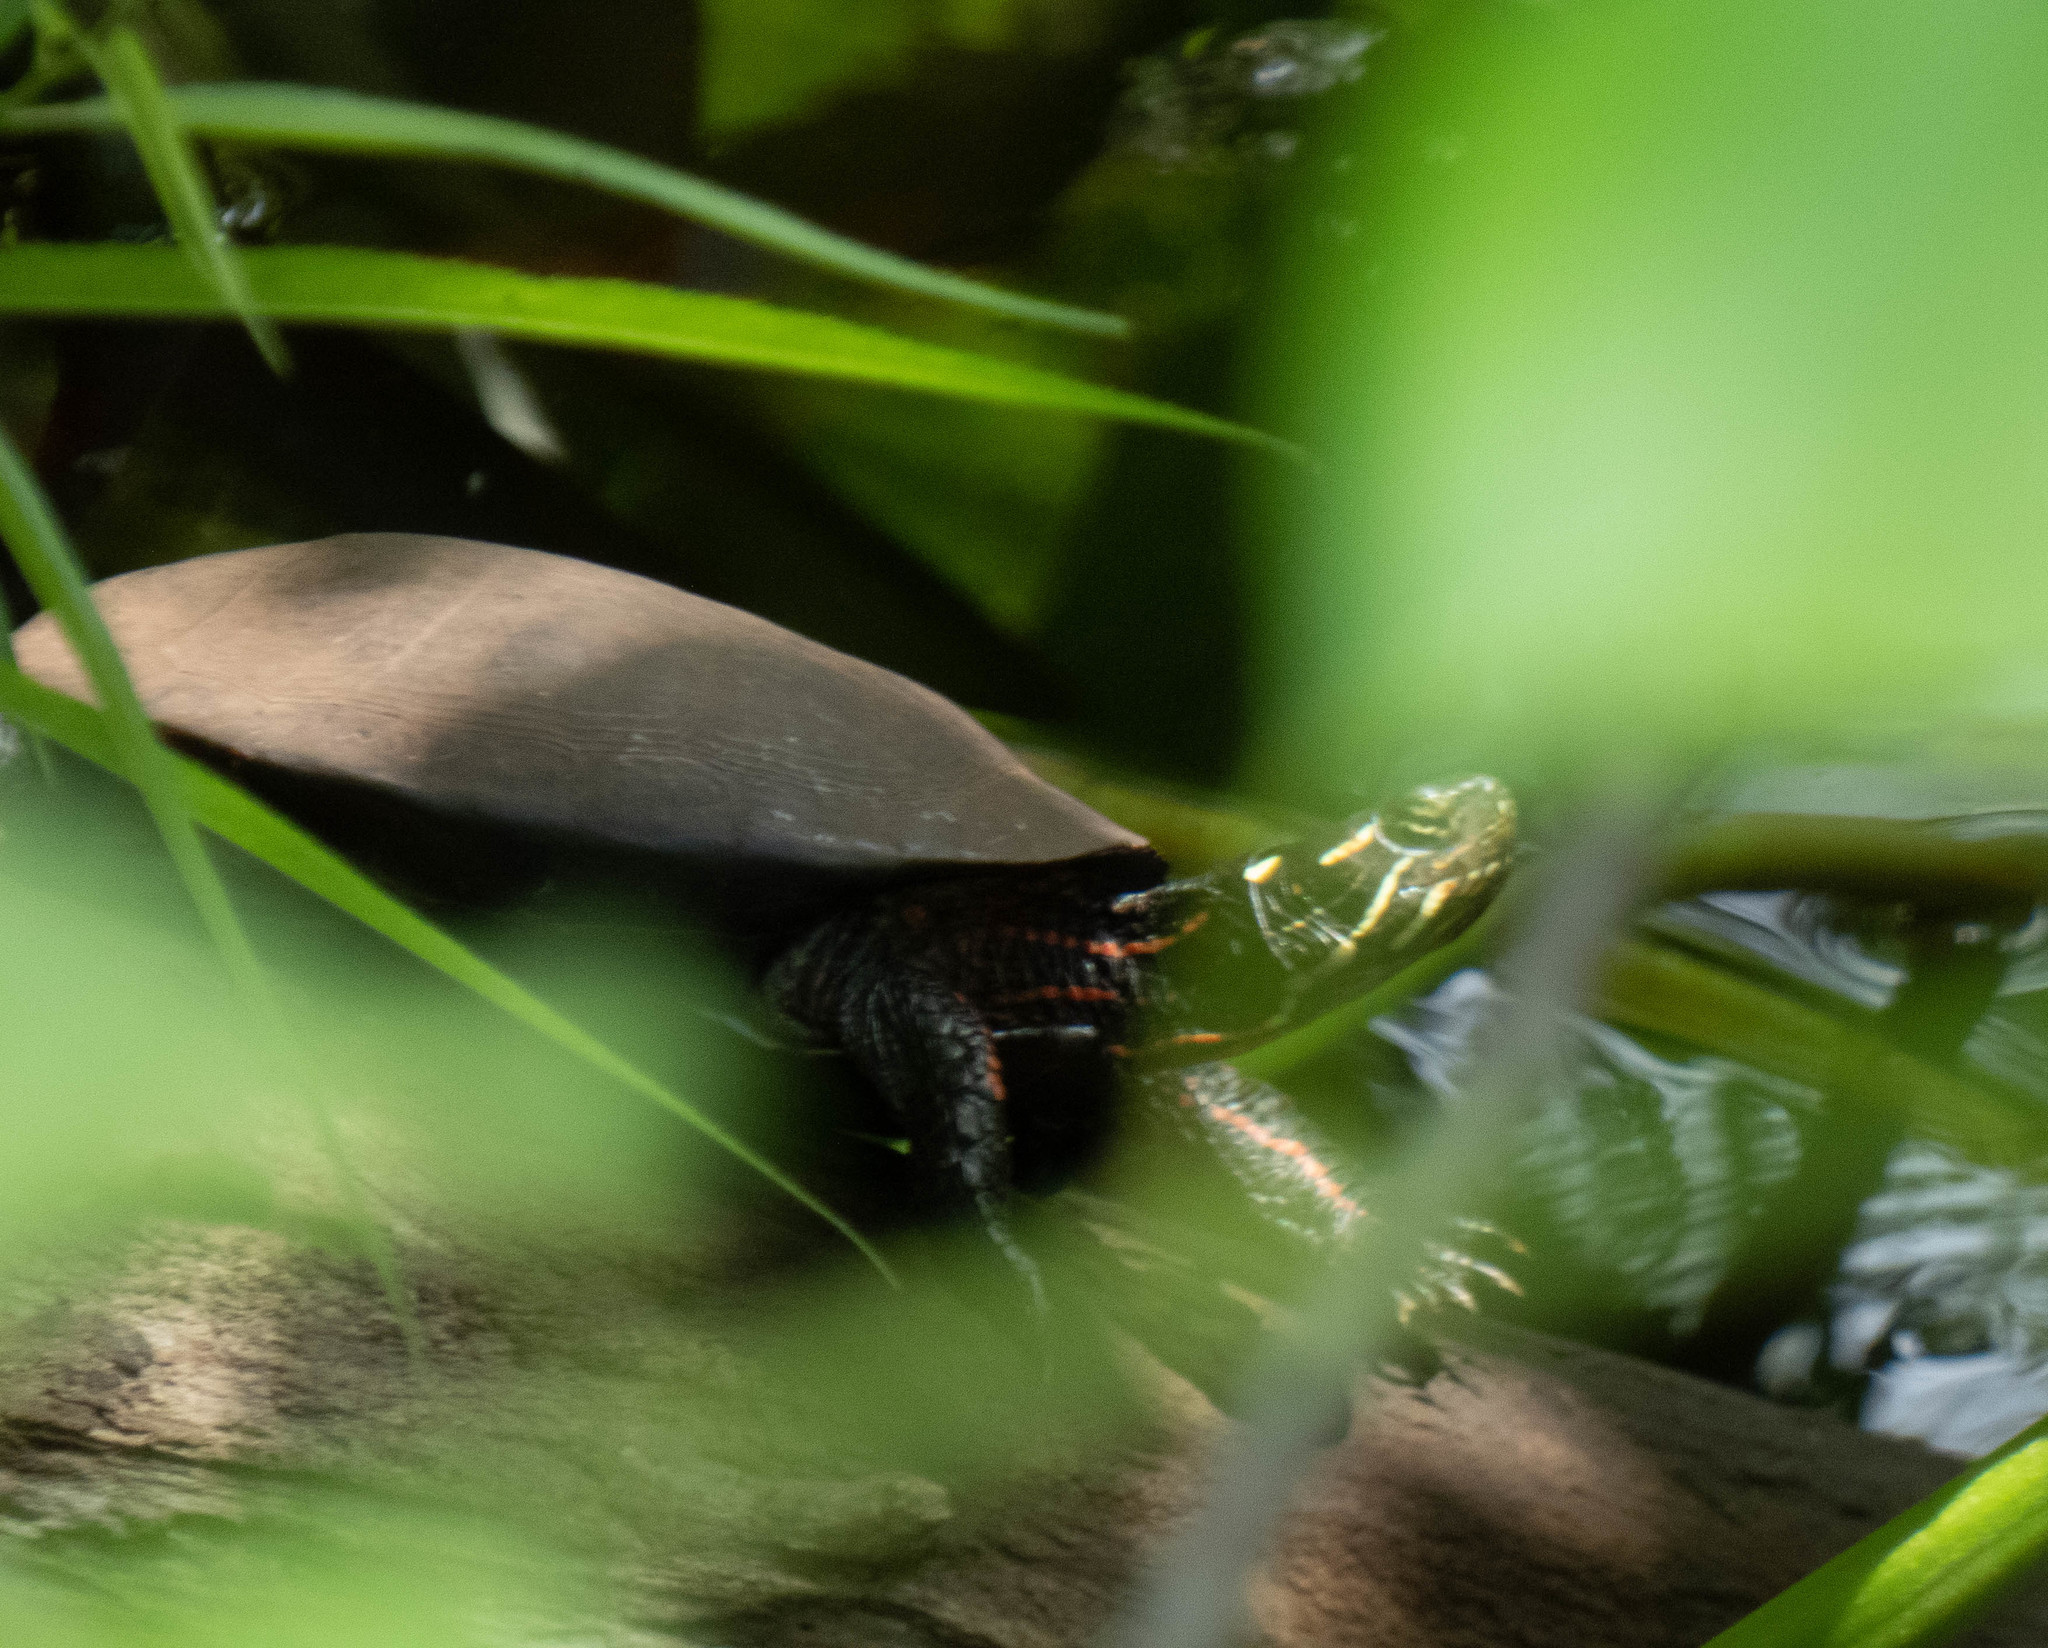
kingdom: Animalia
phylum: Chordata
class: Testudines
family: Emydidae
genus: Chrysemys
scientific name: Chrysemys picta
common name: Painted turtle
